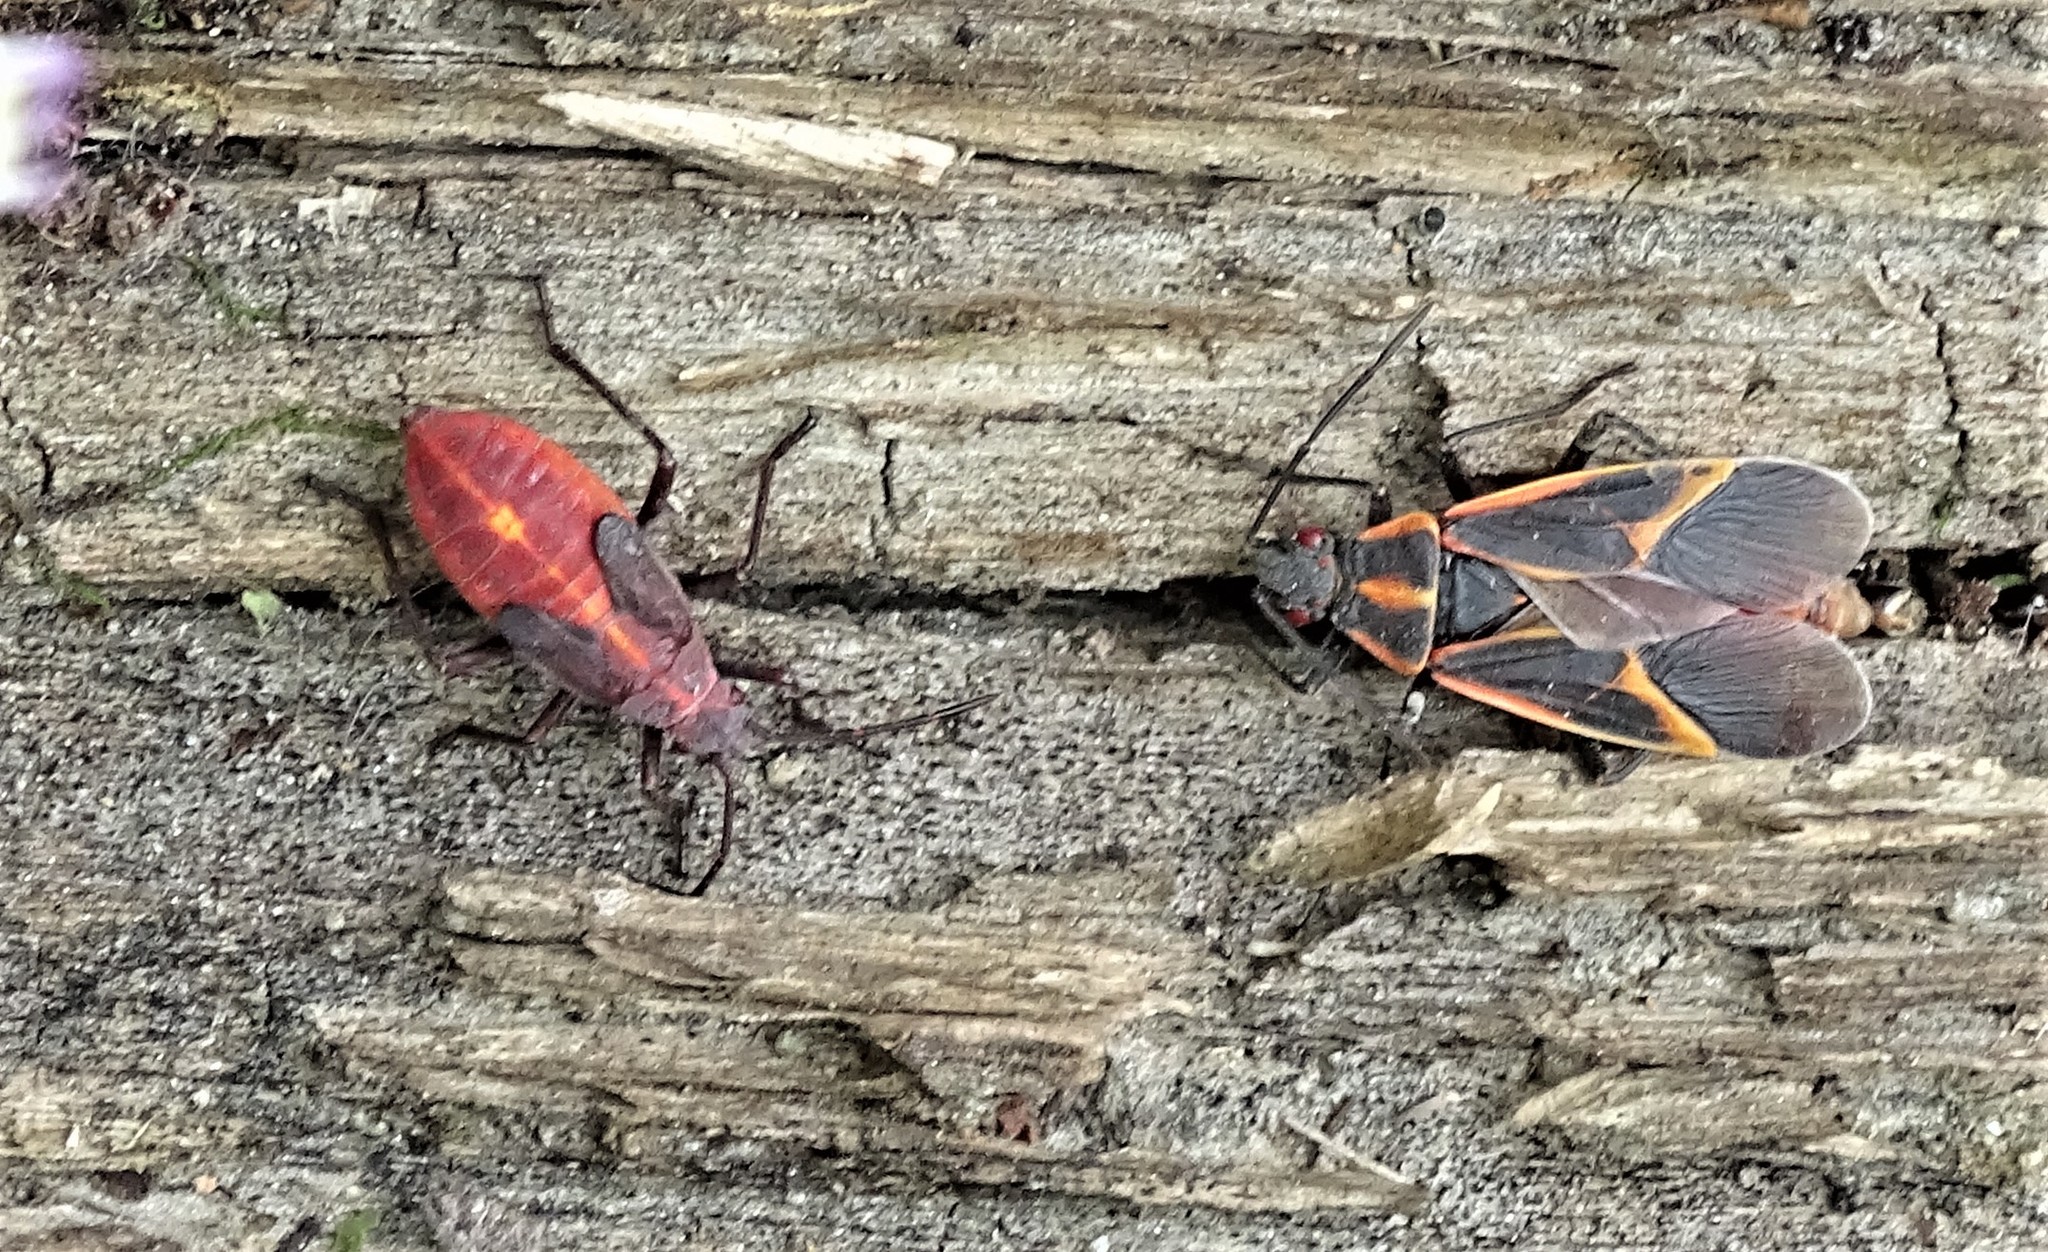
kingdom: Animalia
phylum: Arthropoda
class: Insecta
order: Hemiptera
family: Rhopalidae
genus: Boisea
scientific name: Boisea trivittata
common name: Boxelder bug
